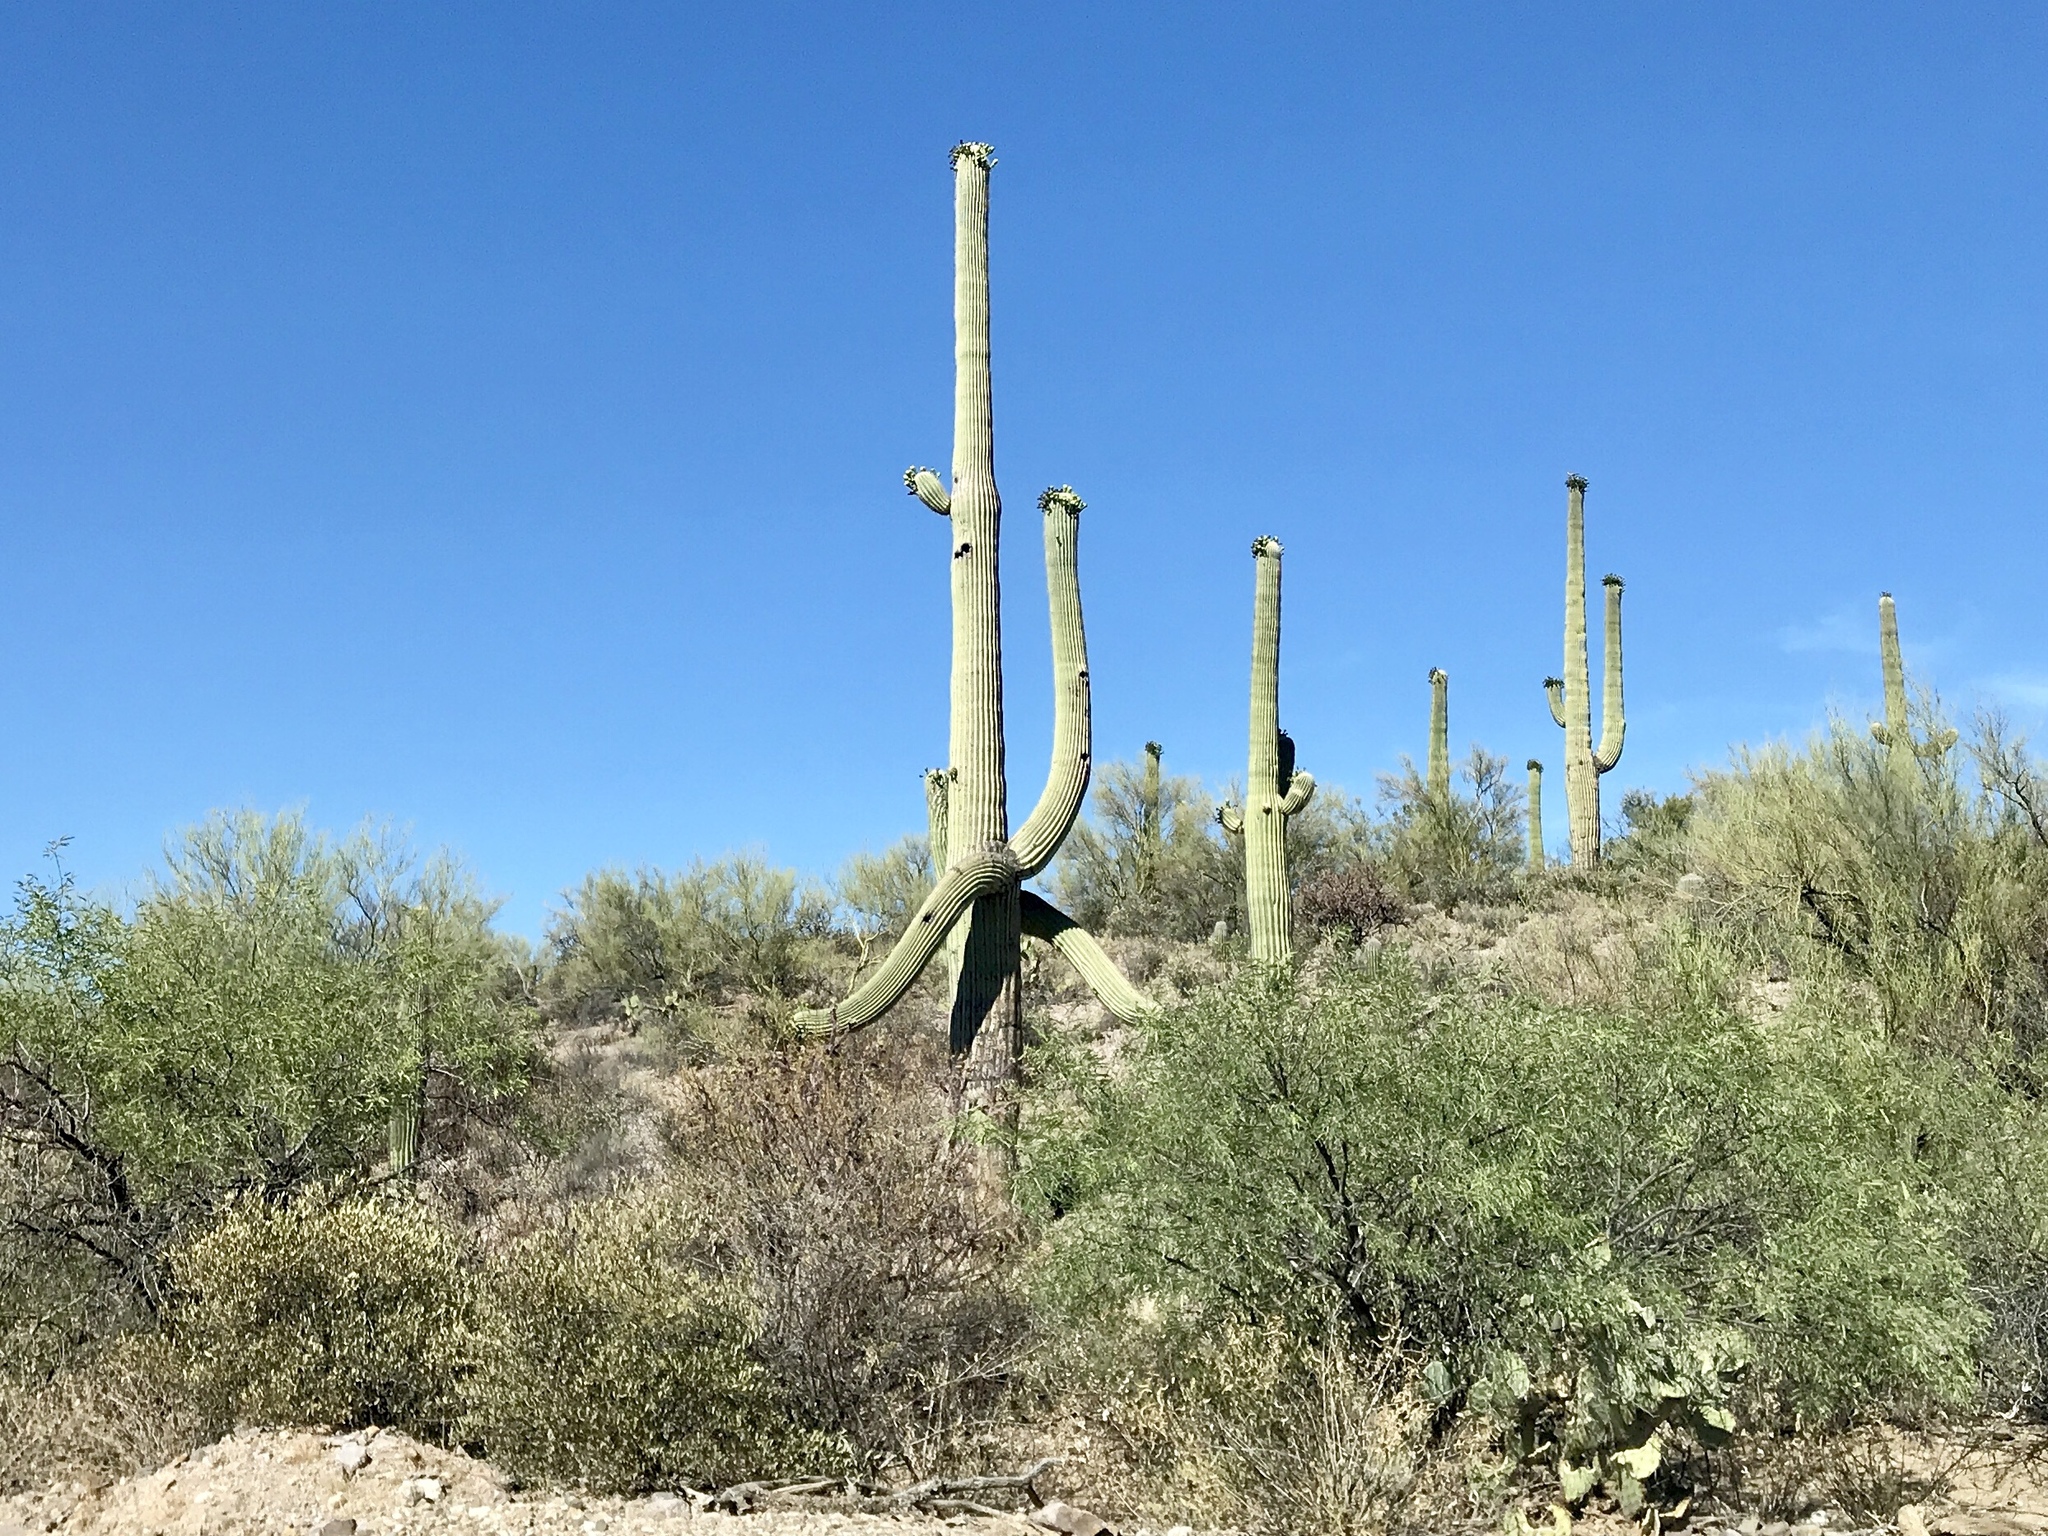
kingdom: Plantae
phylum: Tracheophyta
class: Magnoliopsida
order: Caryophyllales
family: Cactaceae
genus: Carnegiea
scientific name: Carnegiea gigantea
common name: Saguaro
